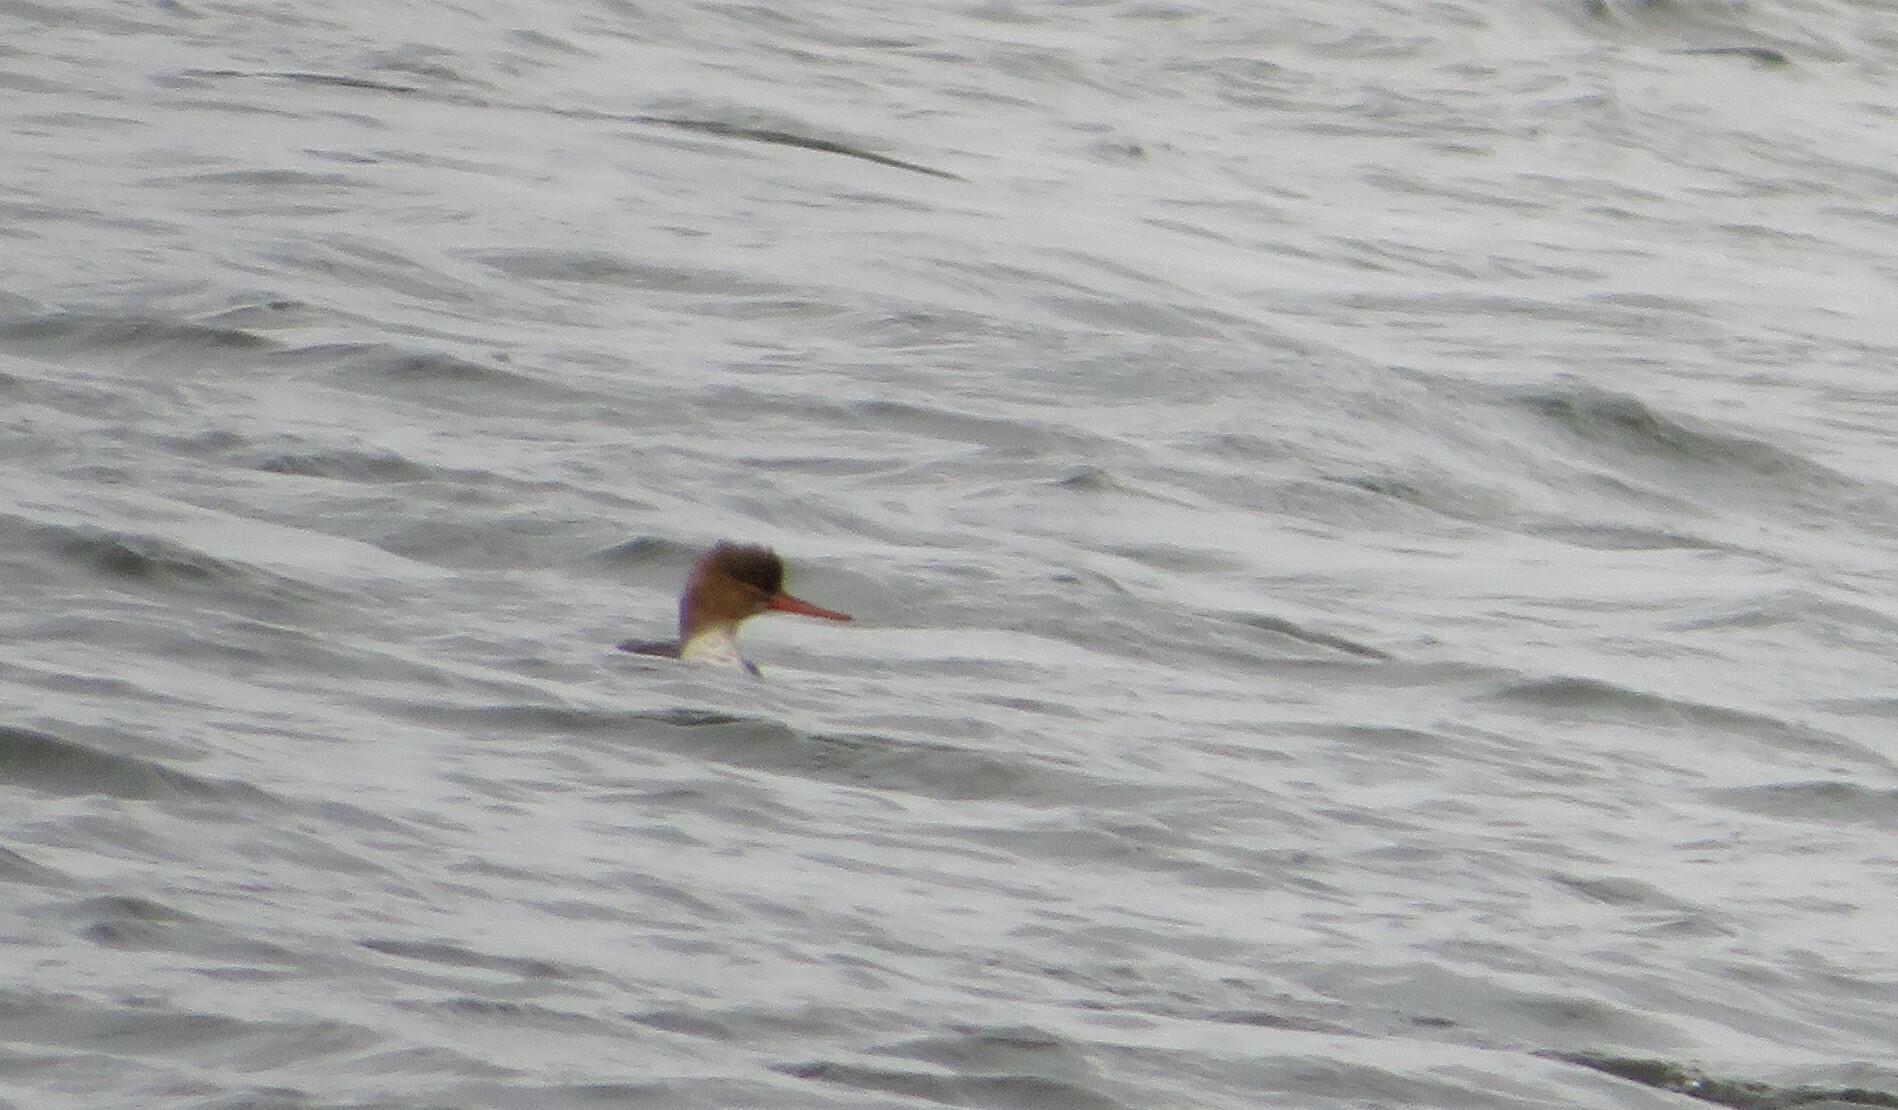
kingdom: Animalia
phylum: Chordata
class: Aves
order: Anseriformes
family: Anatidae
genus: Mergus
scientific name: Mergus serrator
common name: Red-breasted merganser
